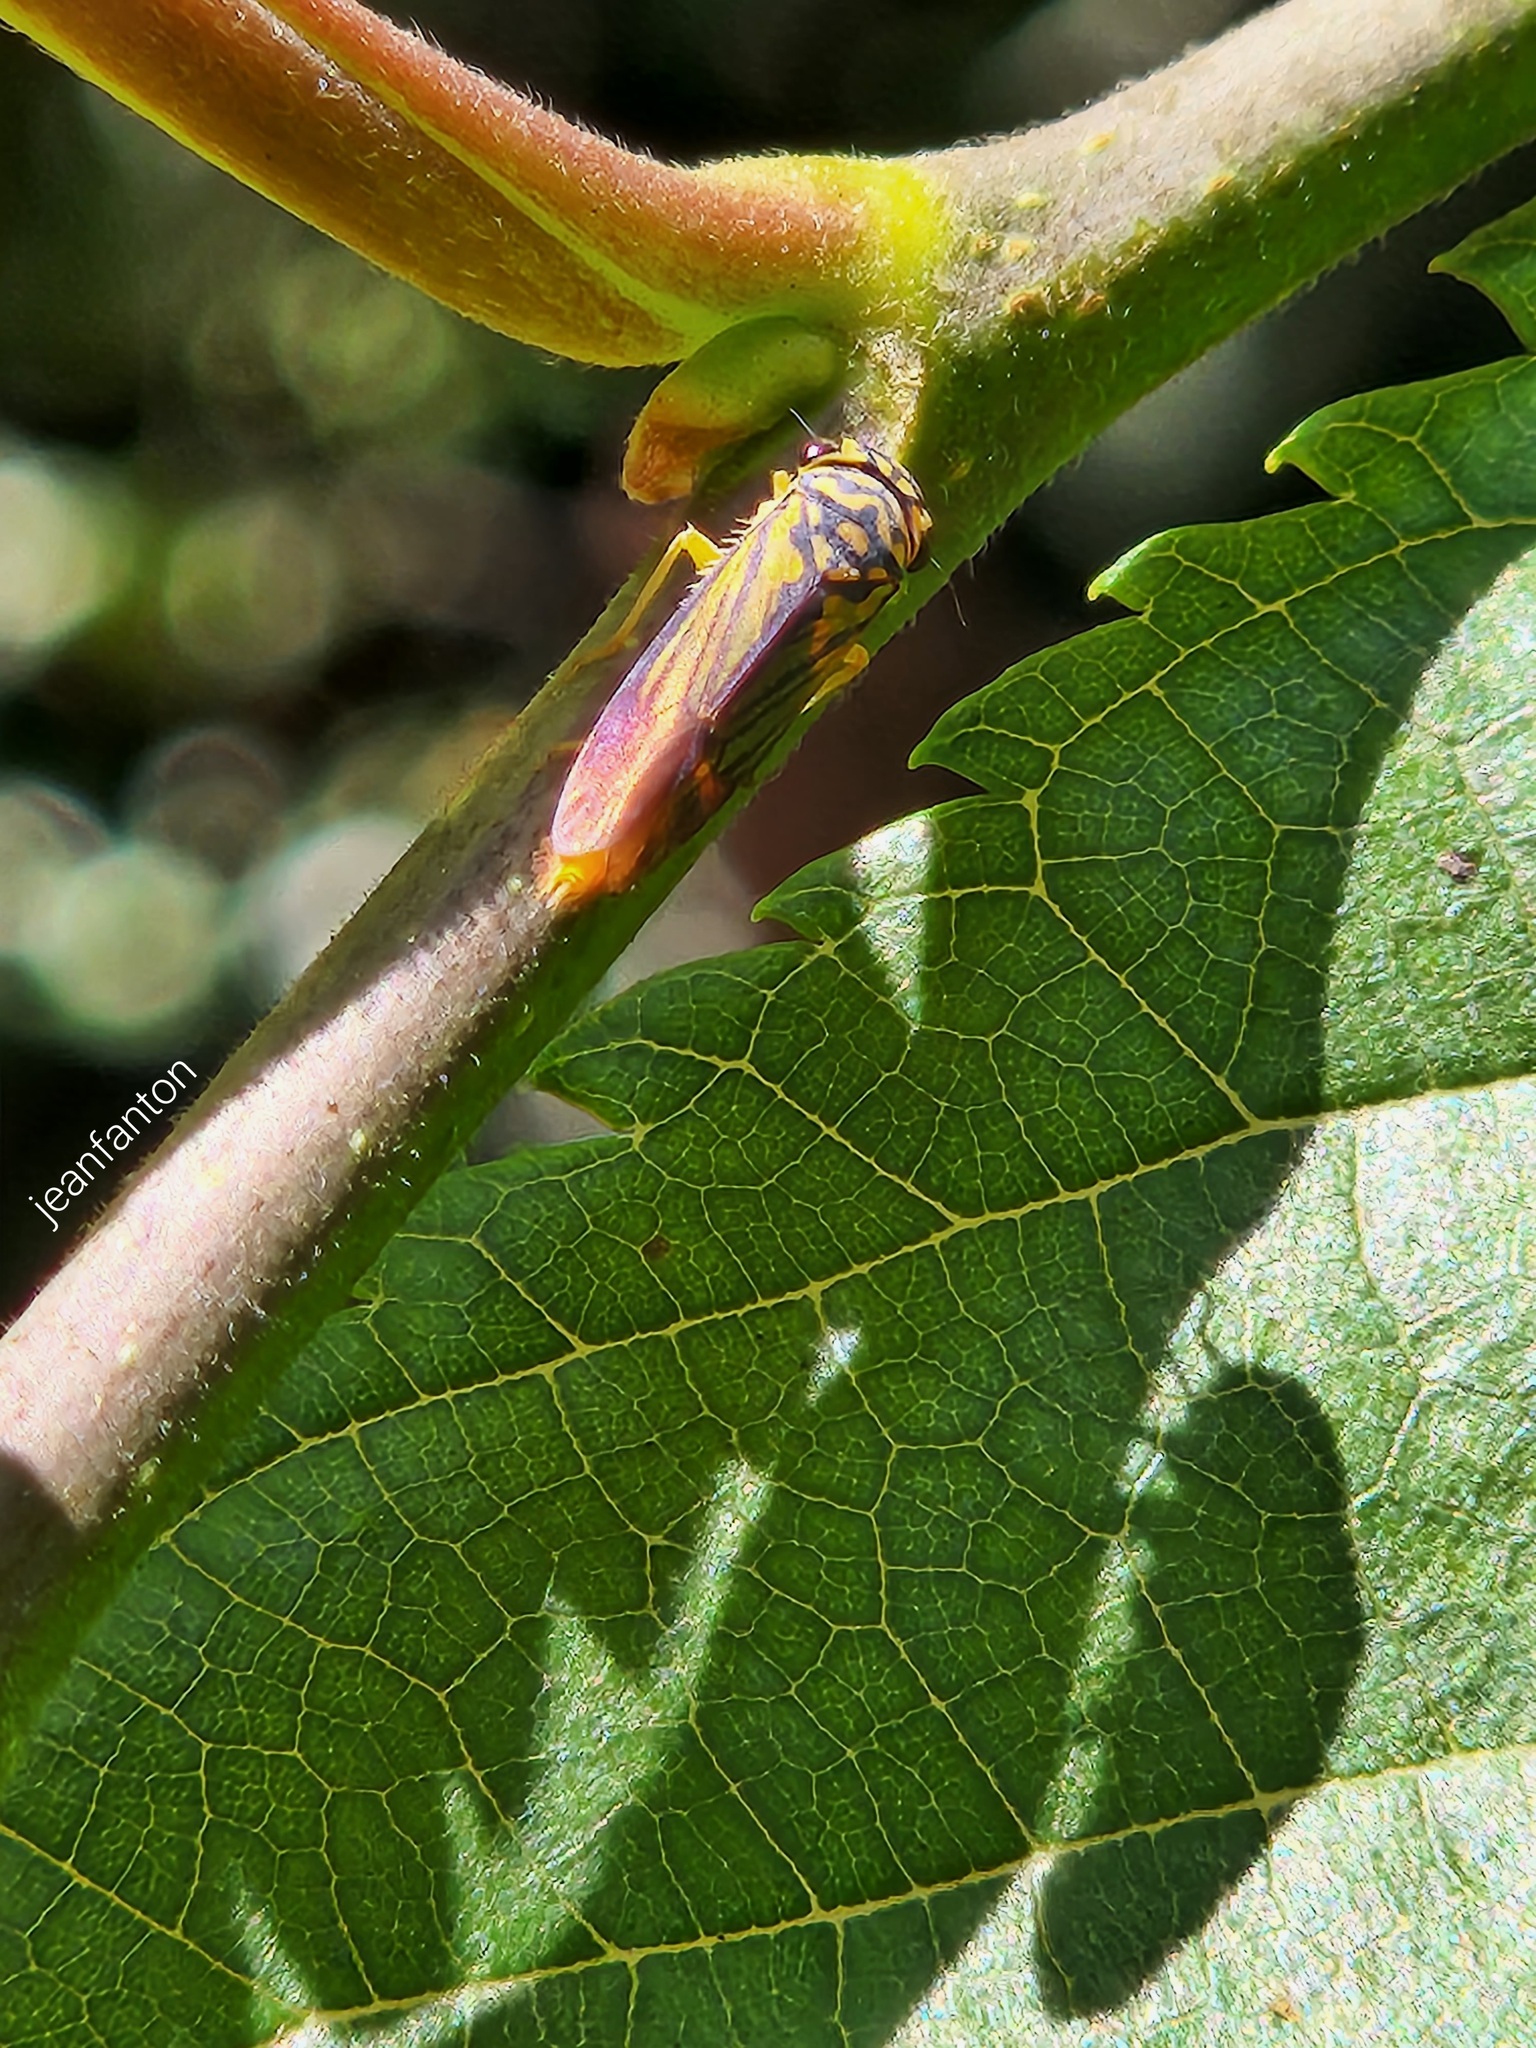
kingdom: Animalia
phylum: Arthropoda
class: Insecta
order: Hemiptera
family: Cicadellidae
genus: Dilobopterus
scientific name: Dilobopterus costalimai
